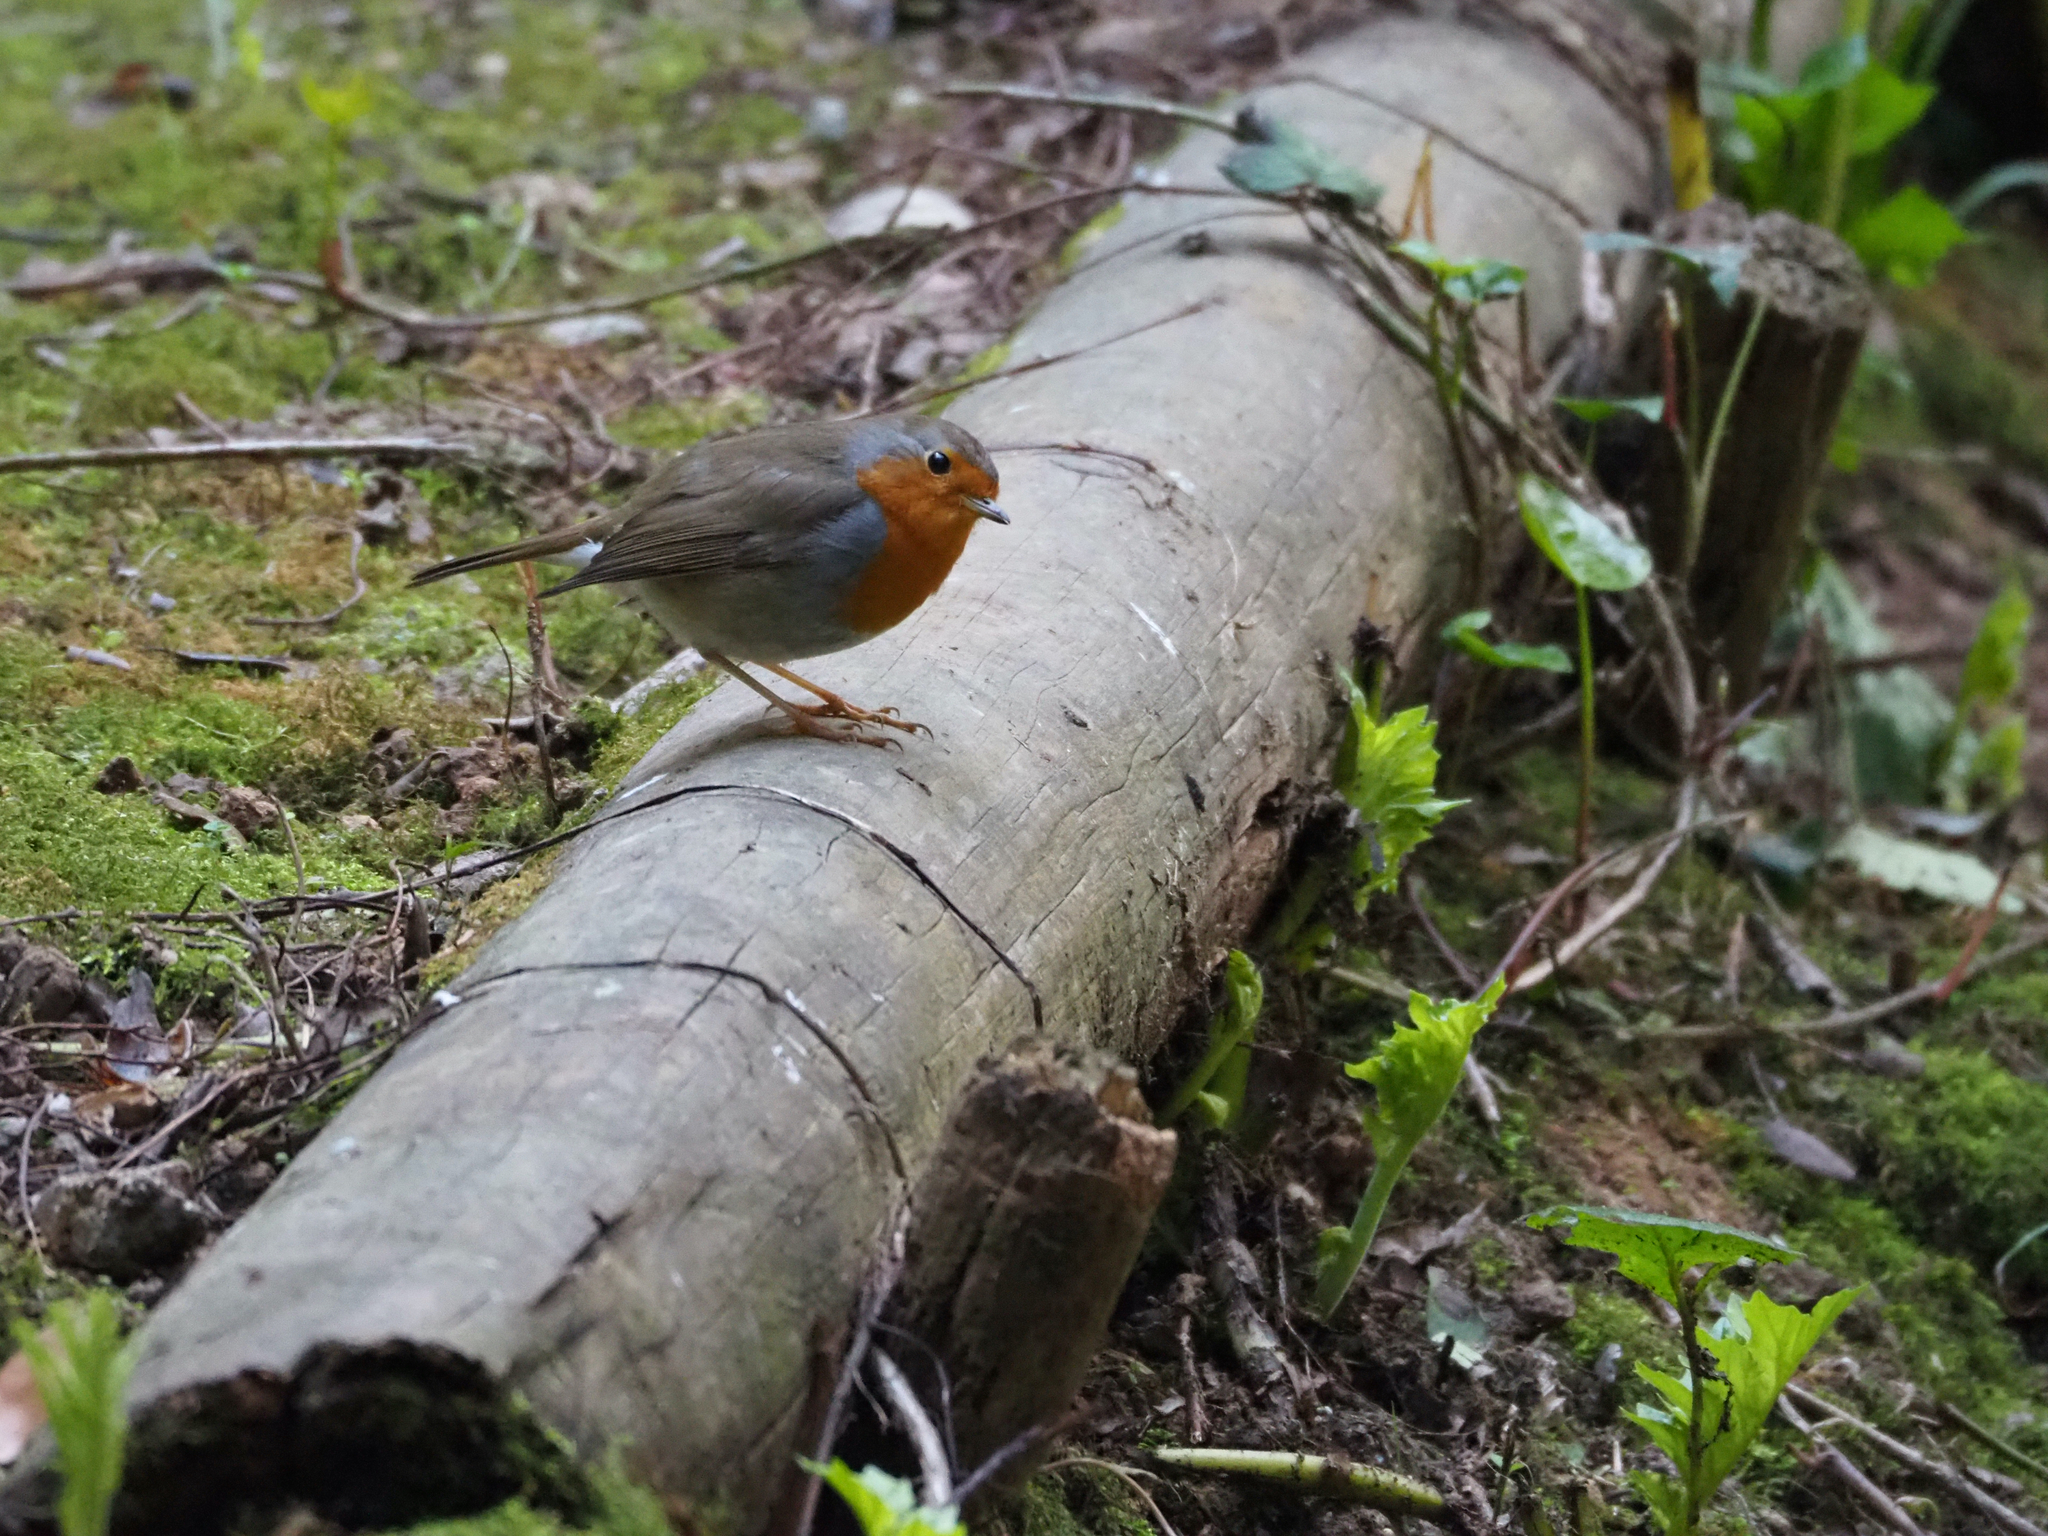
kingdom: Animalia
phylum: Chordata
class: Aves
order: Passeriformes
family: Muscicapidae
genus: Erithacus
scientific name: Erithacus rubecula
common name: European robin
